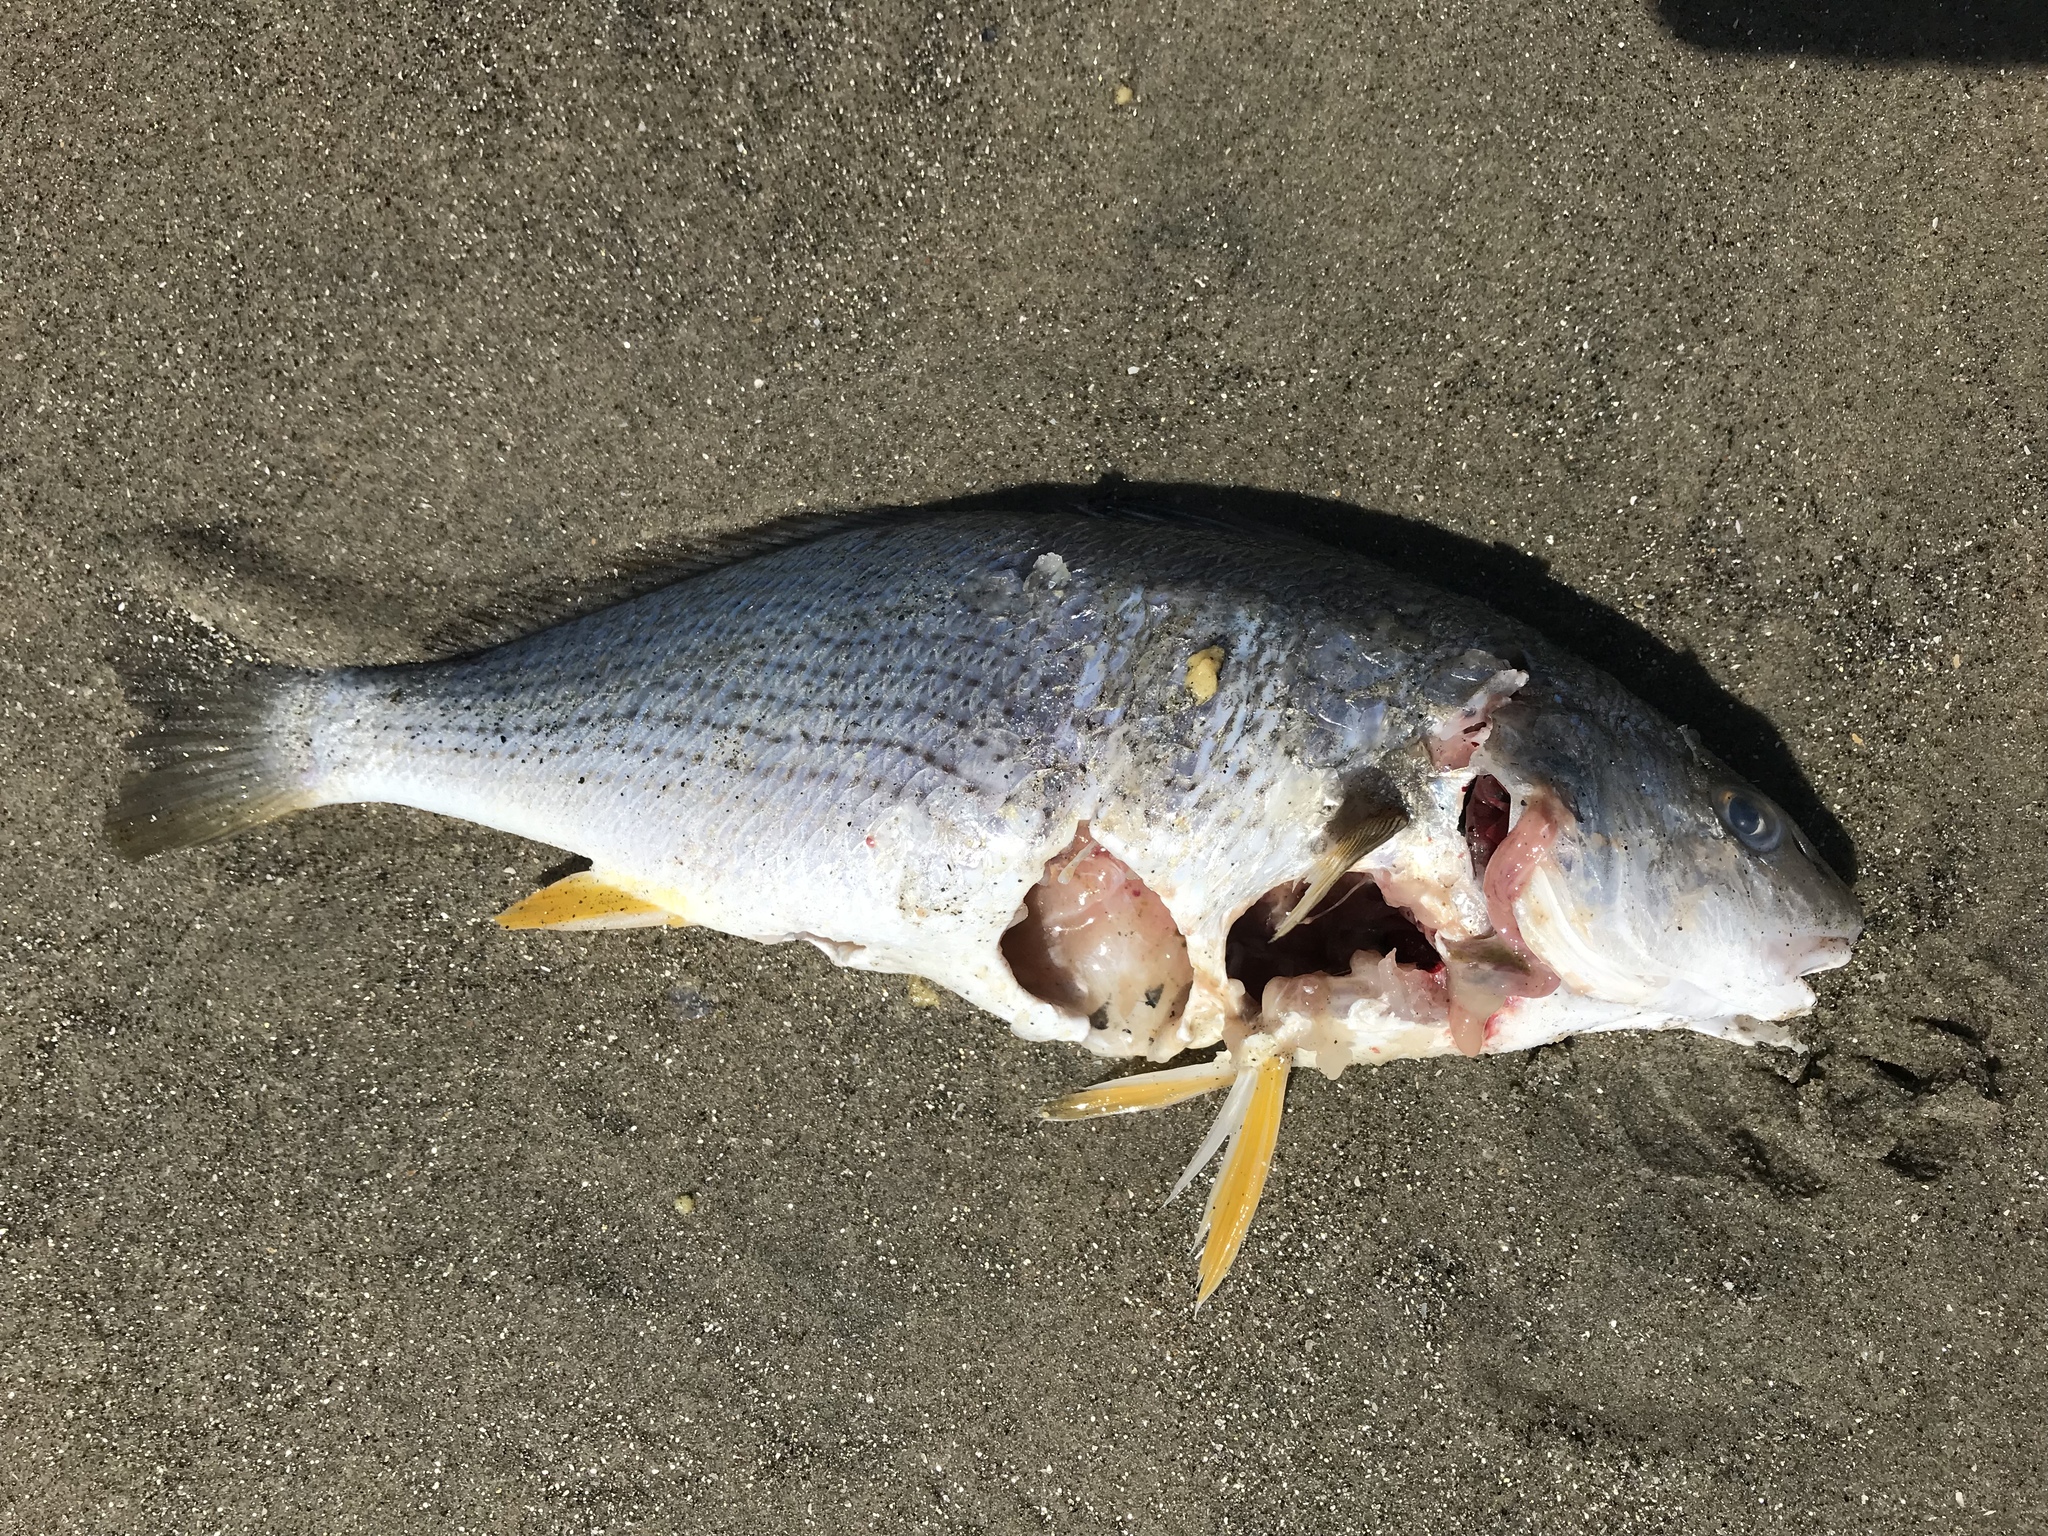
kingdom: Animalia
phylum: Chordata
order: Perciformes
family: Sciaenidae
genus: Umbrina
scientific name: Umbrina roncador
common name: Yellowfin croaker
